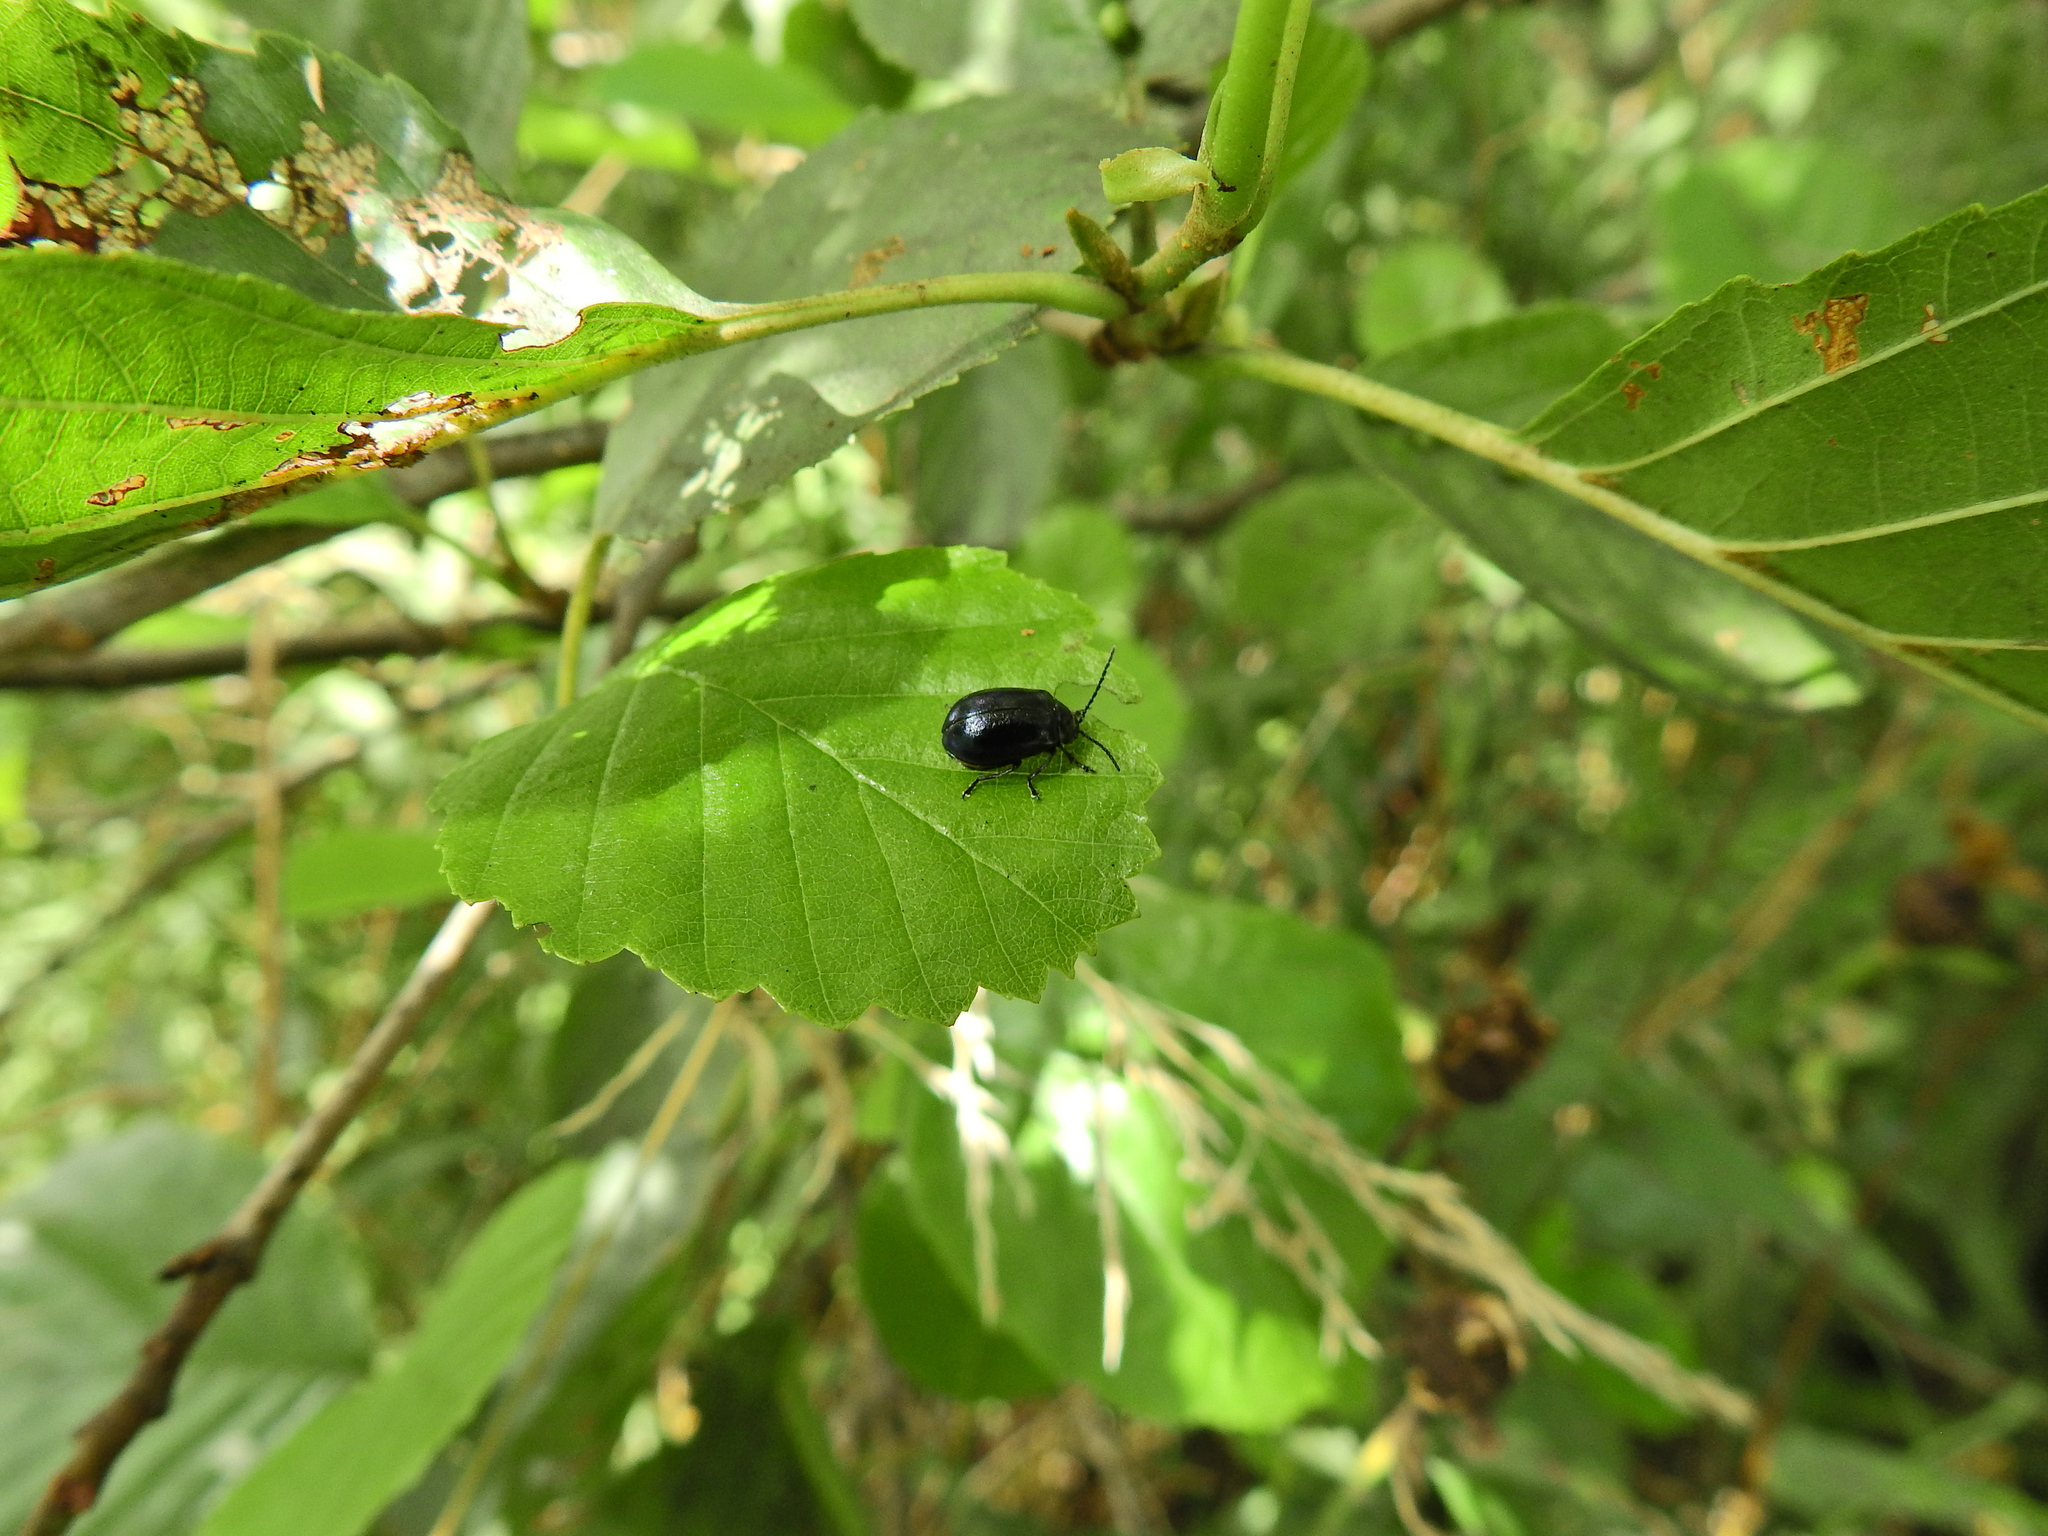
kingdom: Animalia
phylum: Arthropoda
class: Insecta
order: Coleoptera
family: Chrysomelidae
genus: Agelastica
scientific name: Agelastica alni
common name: Alder leaf beetle
